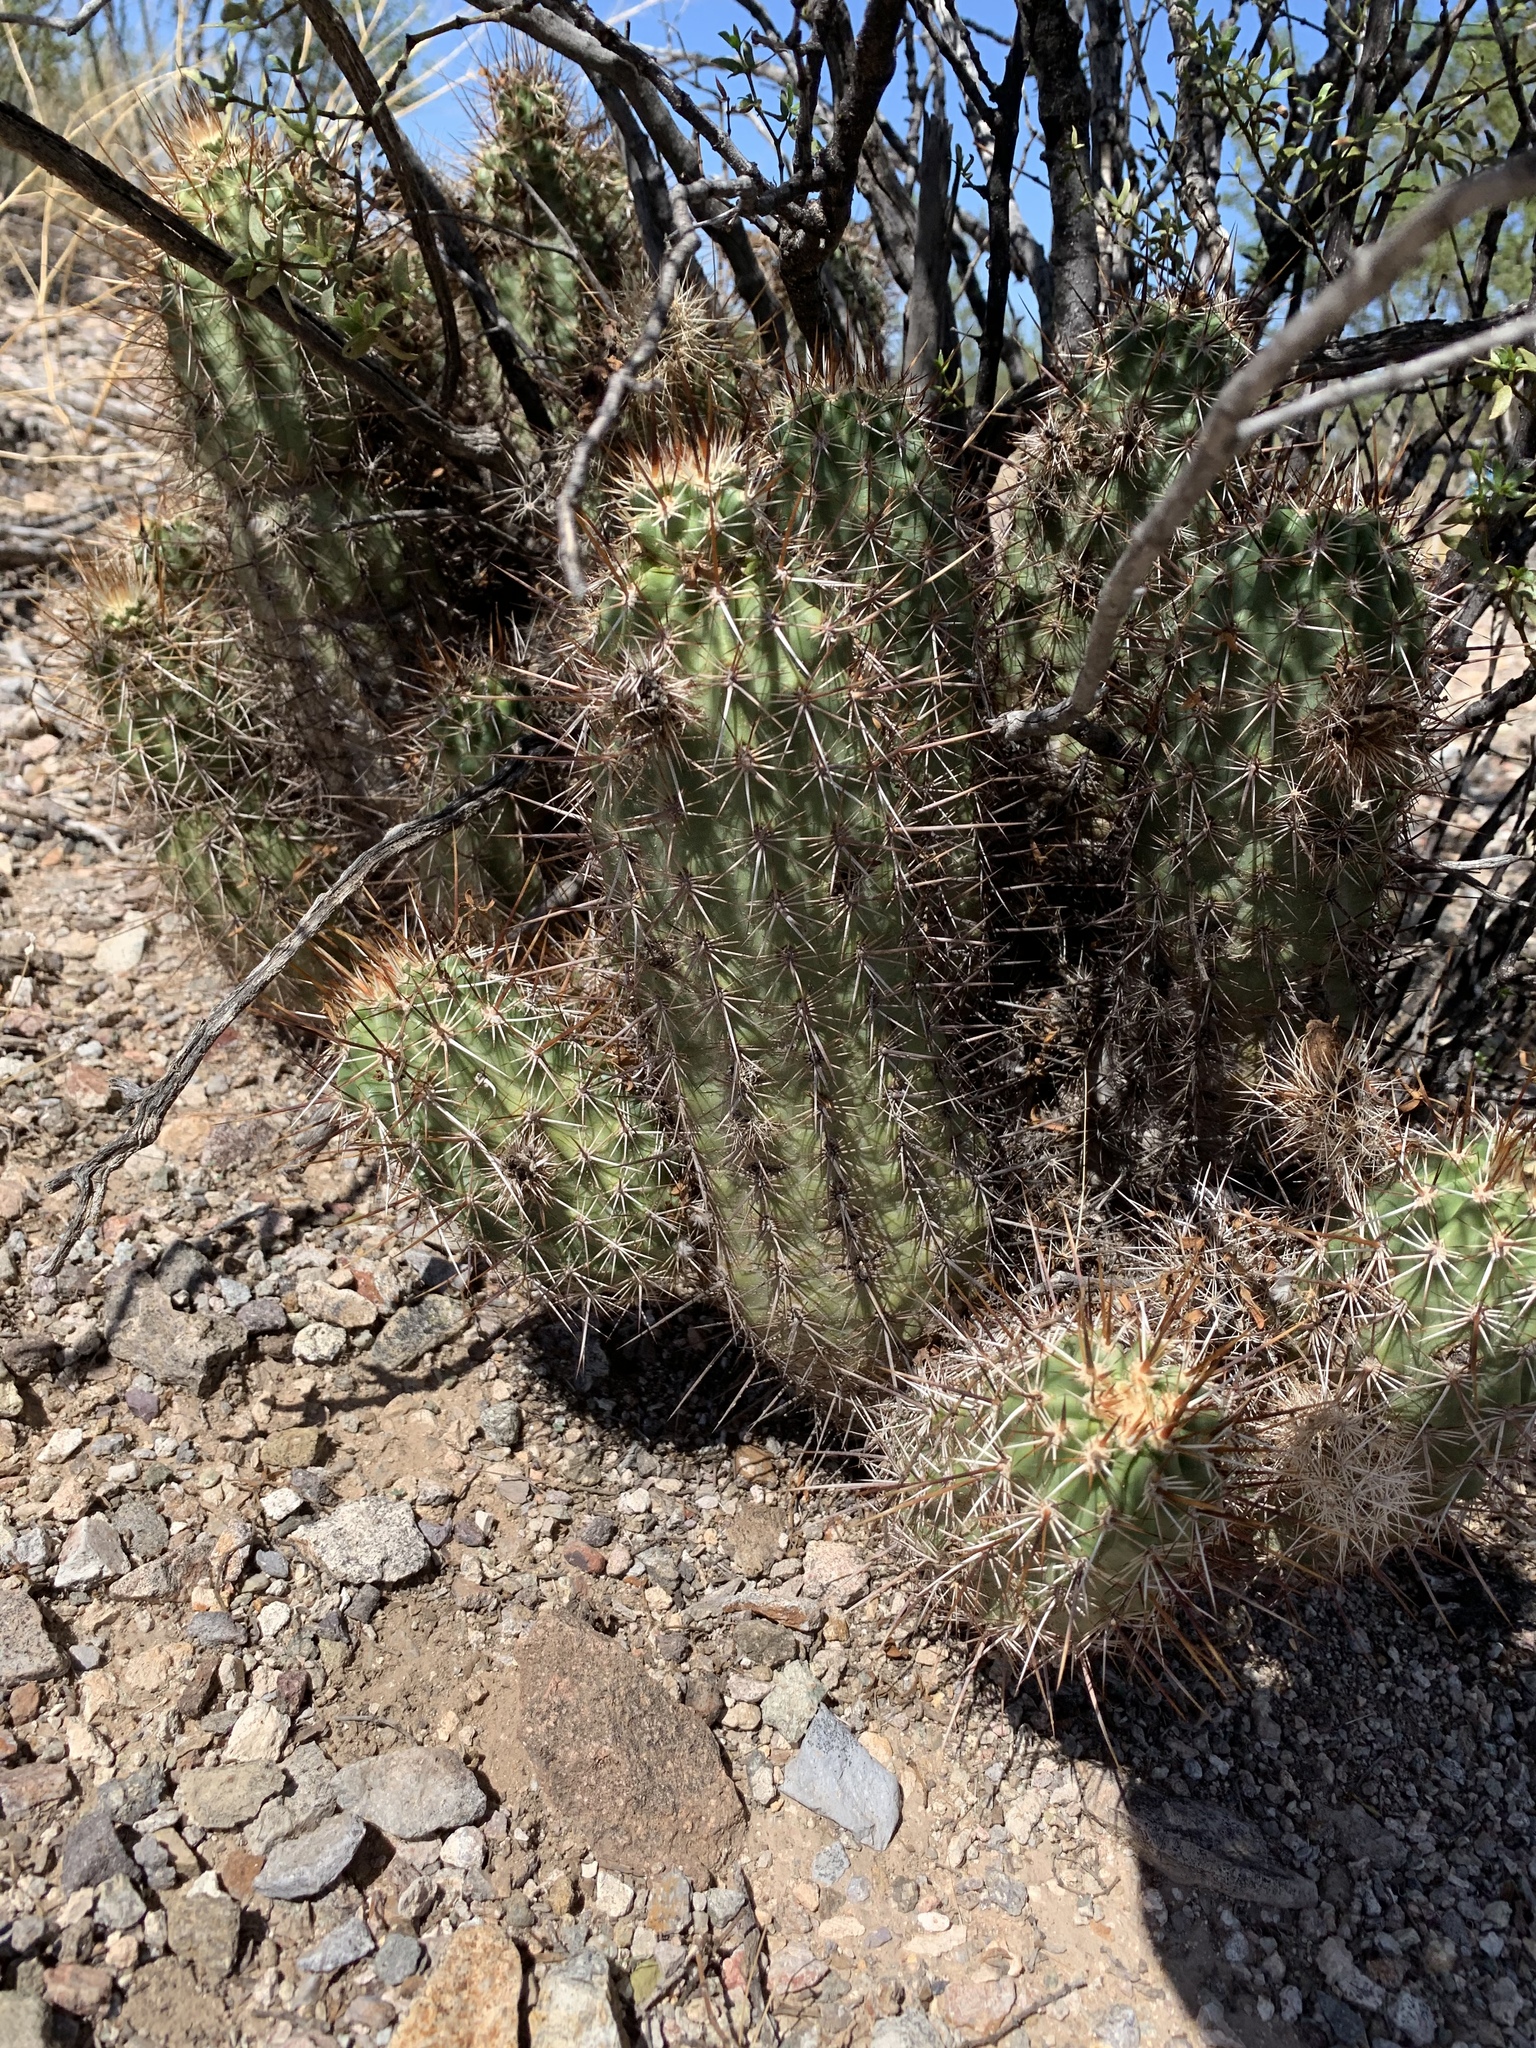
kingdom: Plantae
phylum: Tracheophyta
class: Magnoliopsida
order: Caryophyllales
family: Cactaceae
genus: Echinocereus
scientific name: Echinocereus fasciculatus
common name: Bundle hedgehog
